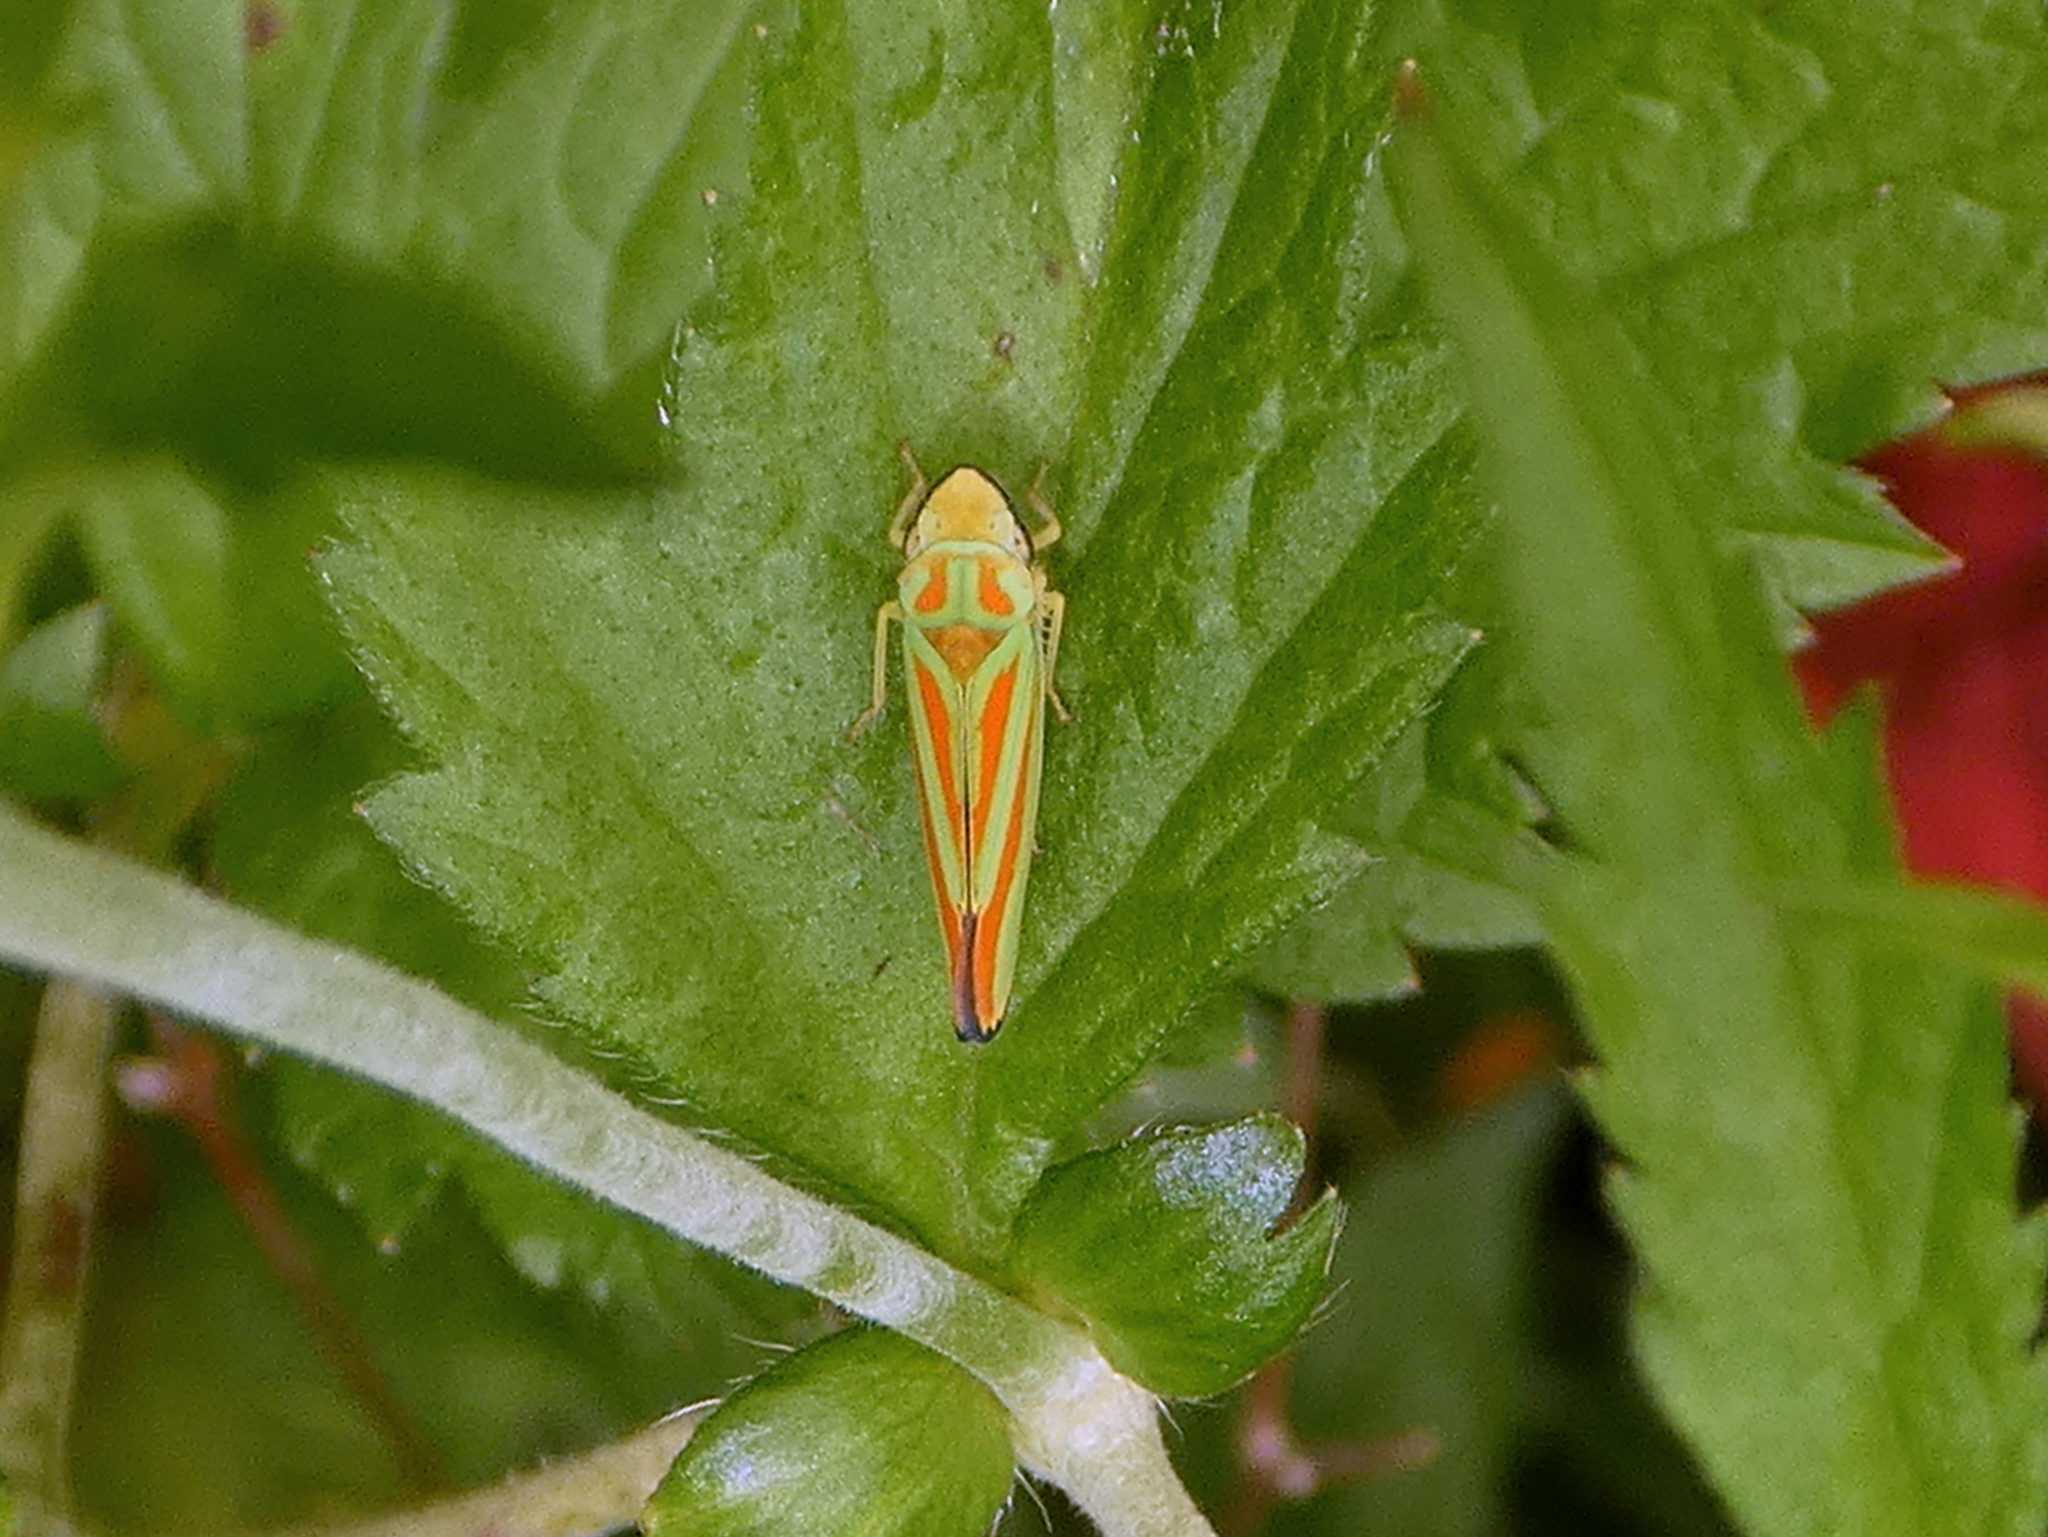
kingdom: Animalia
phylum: Arthropoda
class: Insecta
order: Hemiptera
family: Cicadellidae
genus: Graphocephala
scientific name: Graphocephala fennahi
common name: Rhododendron leafhopper
